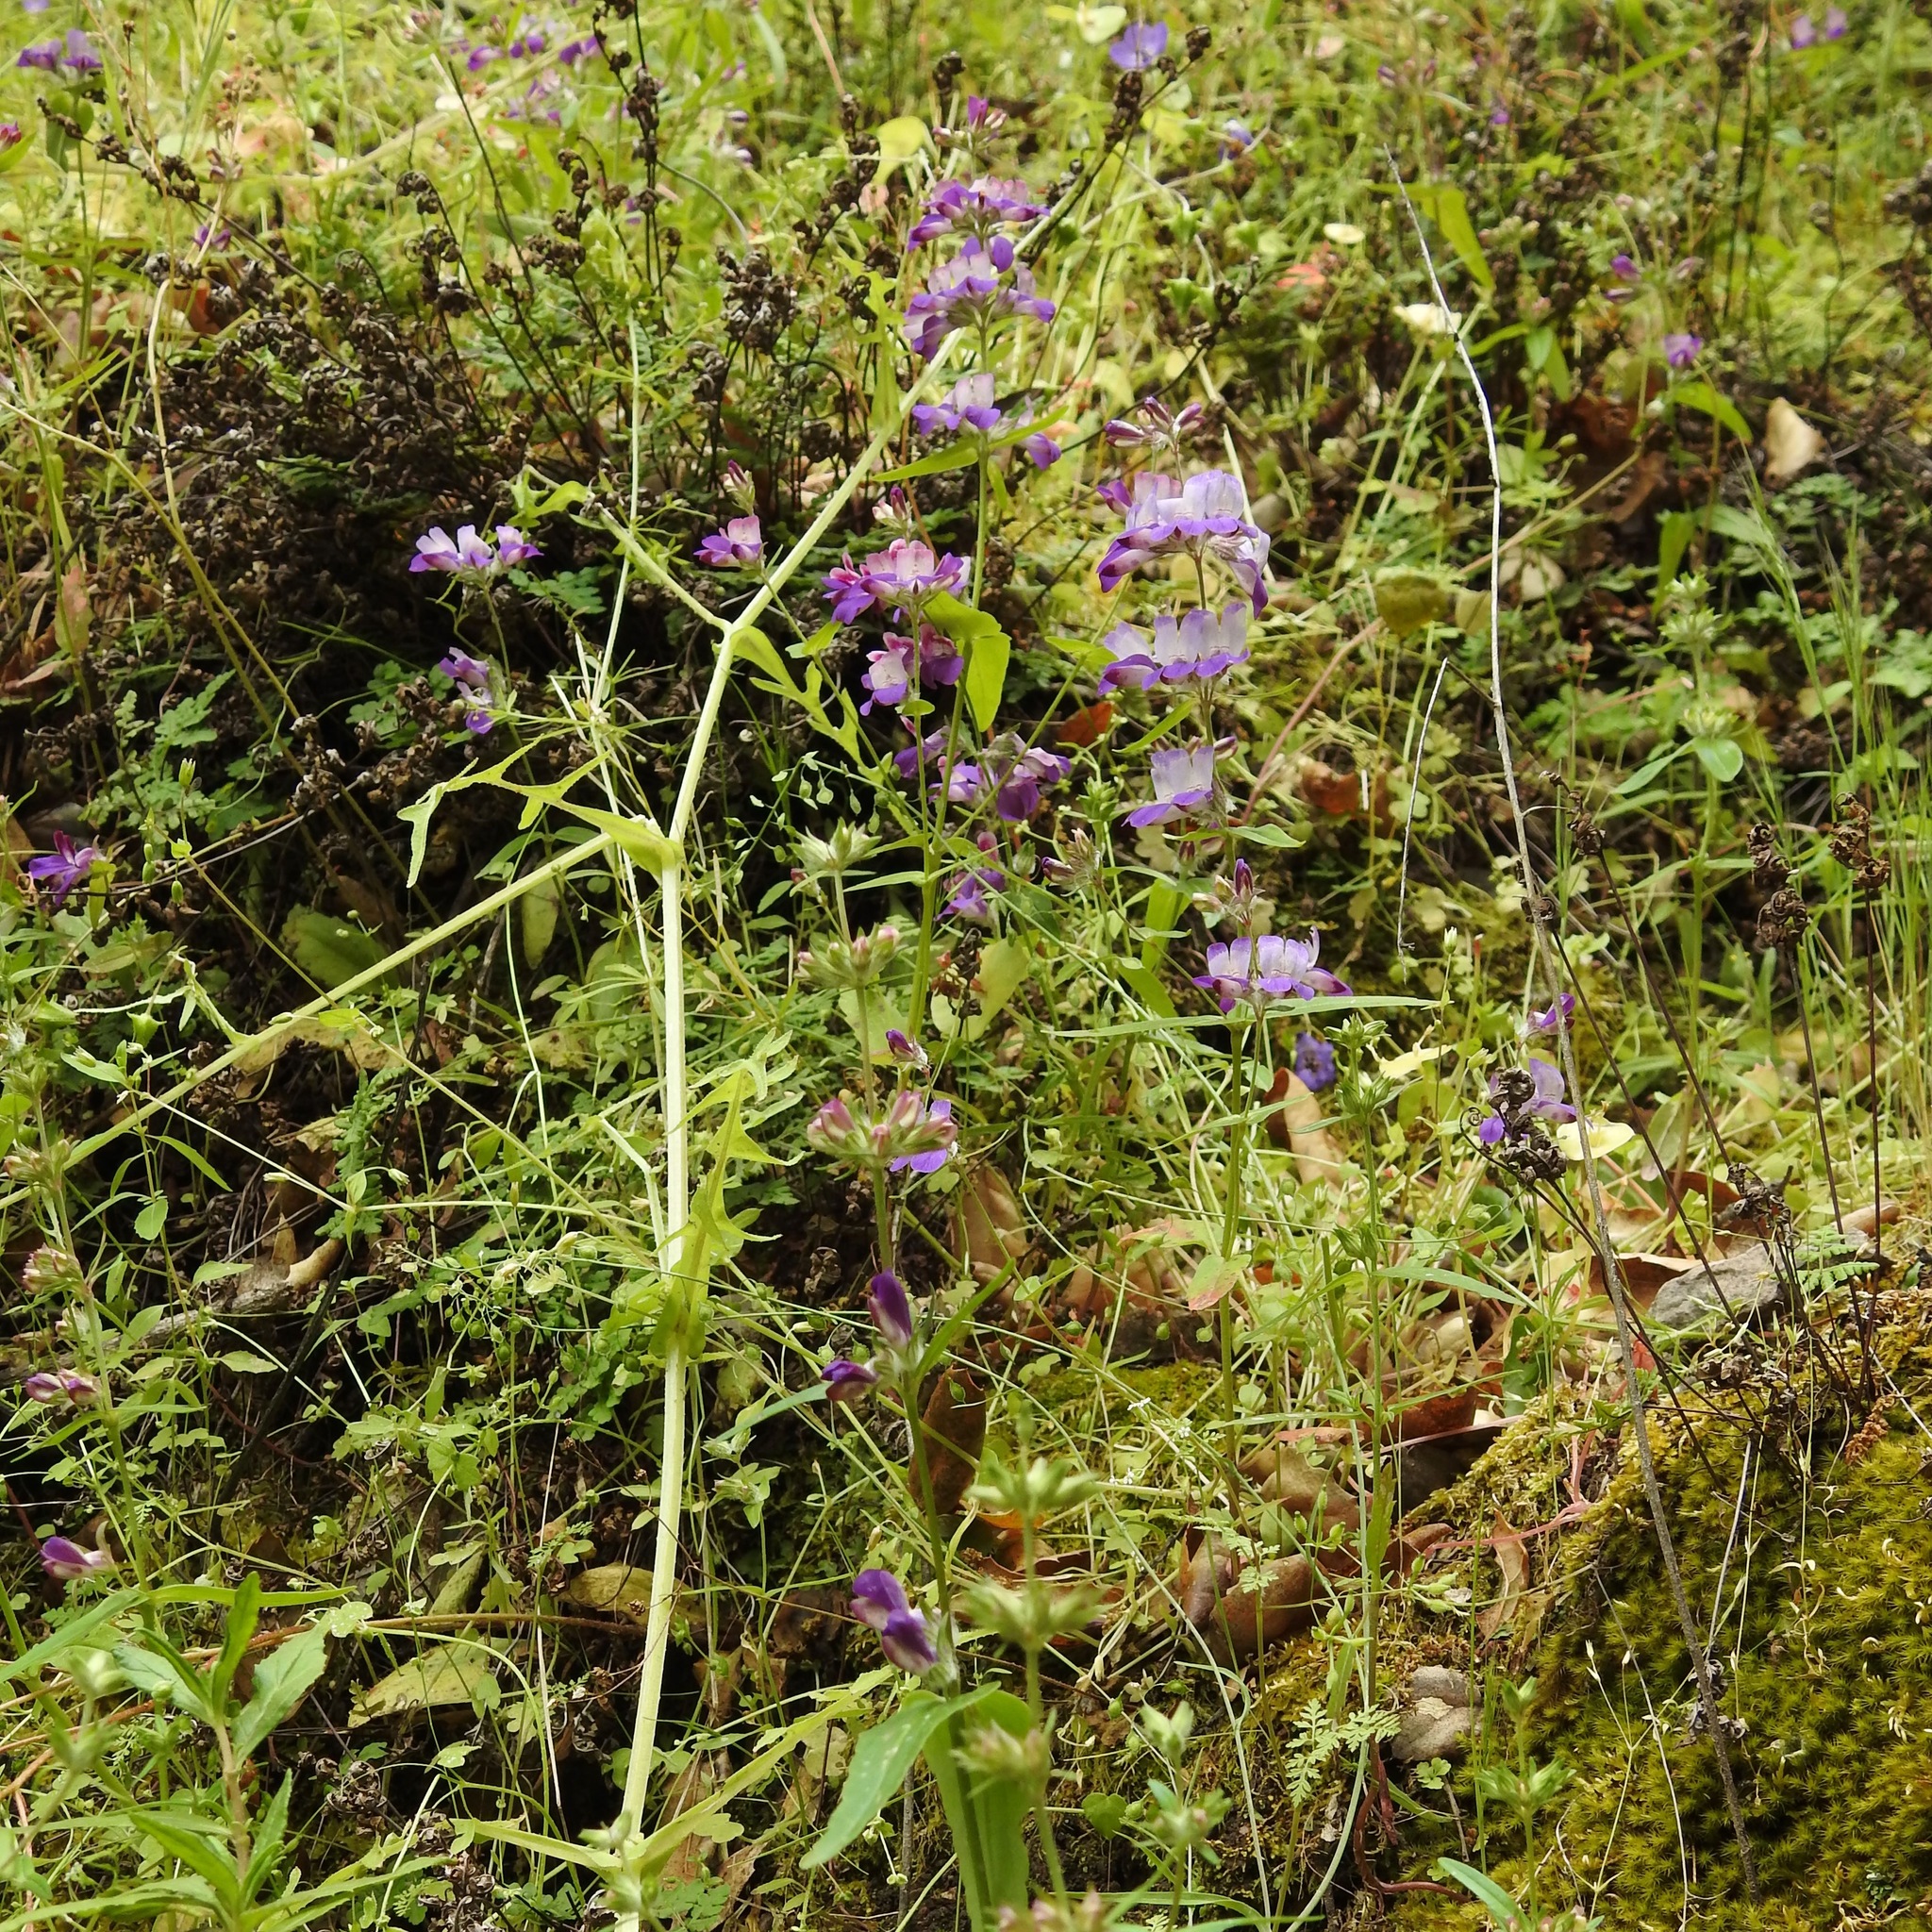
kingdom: Plantae
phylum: Tracheophyta
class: Magnoliopsida
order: Lamiales
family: Plantaginaceae
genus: Collinsia
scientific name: Collinsia heterophylla
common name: Chinese-houses
